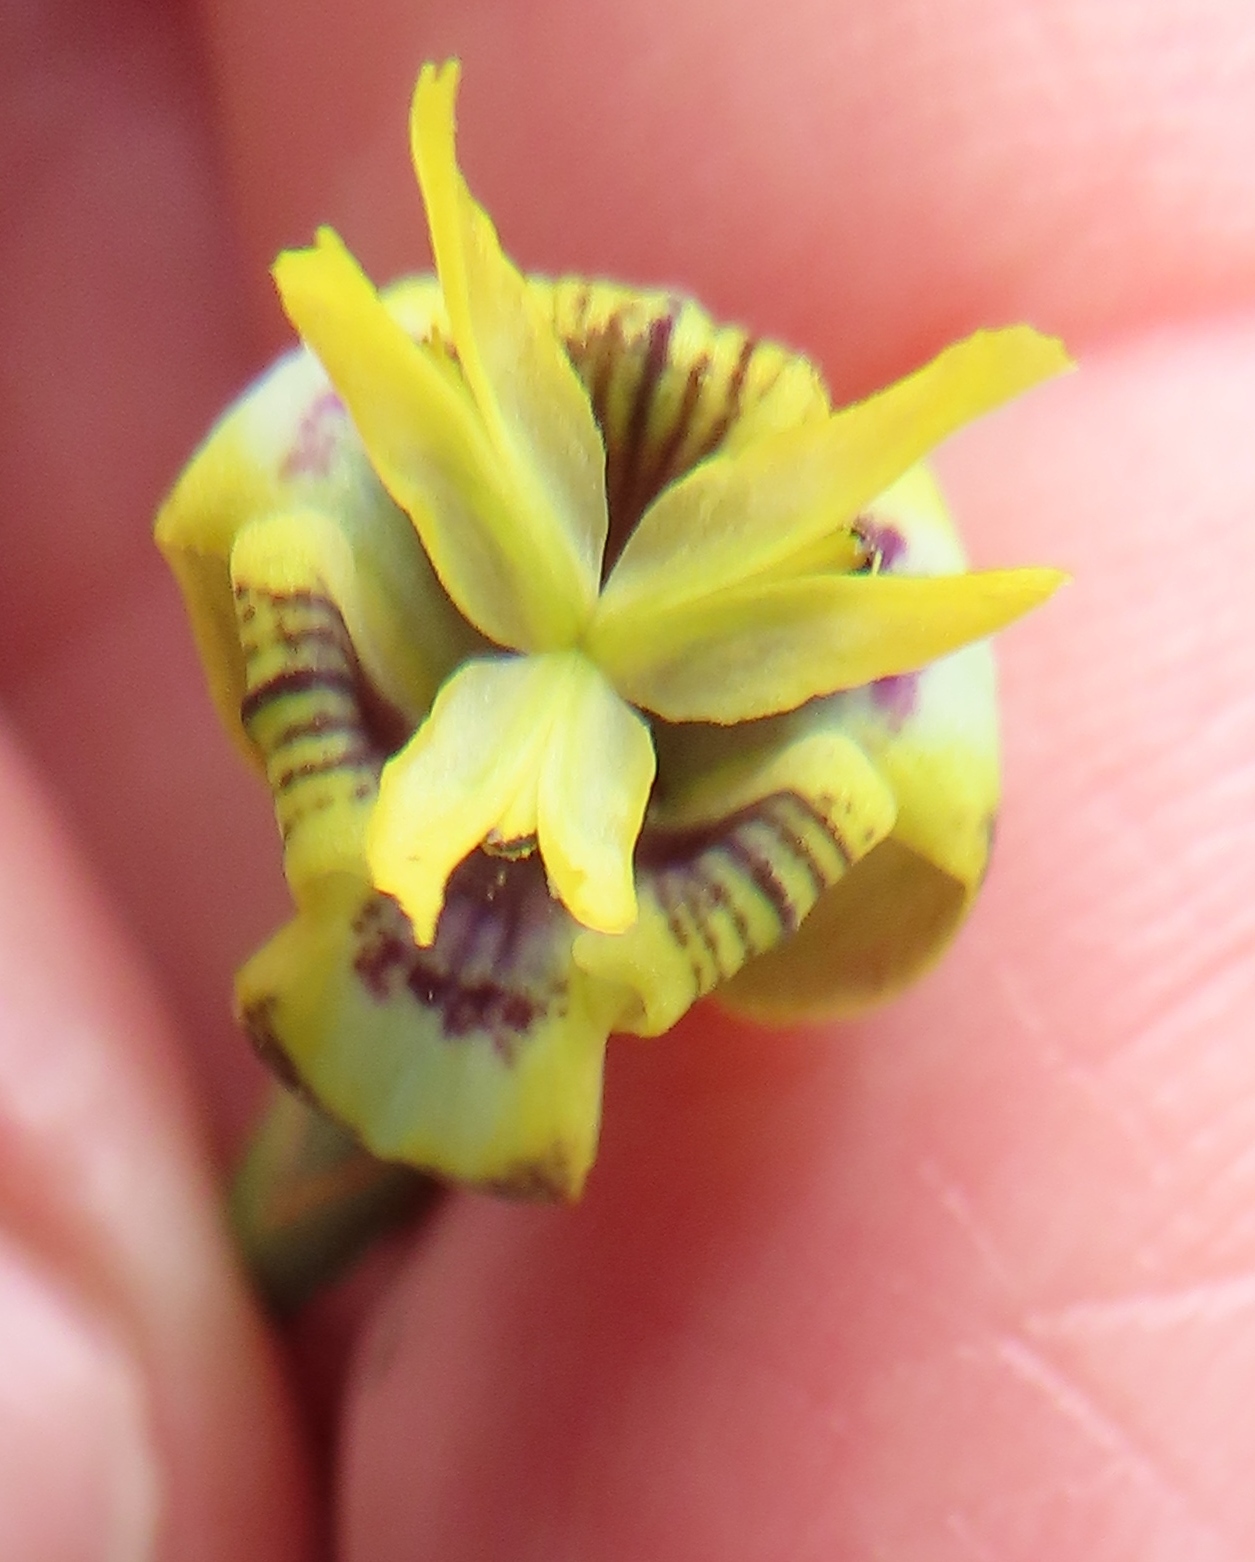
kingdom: Plantae
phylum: Tracheophyta
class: Liliopsida
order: Asparagales
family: Iridaceae
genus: Moraea
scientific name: Moraea inconspicua
